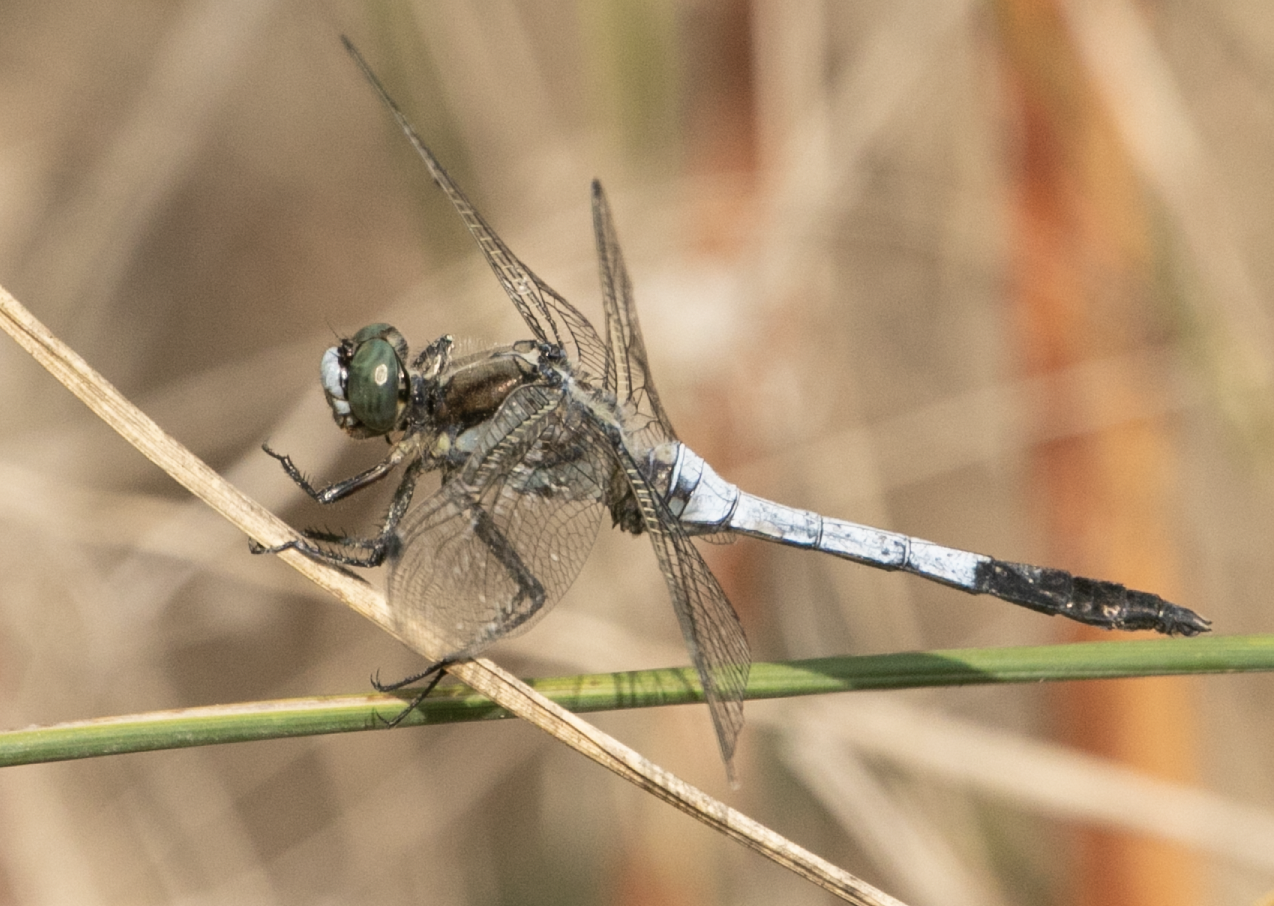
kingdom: Animalia
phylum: Arthropoda
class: Insecta
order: Odonata
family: Libellulidae
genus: Orthetrum
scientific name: Orthetrum albistylum
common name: White-tailed skimmer
